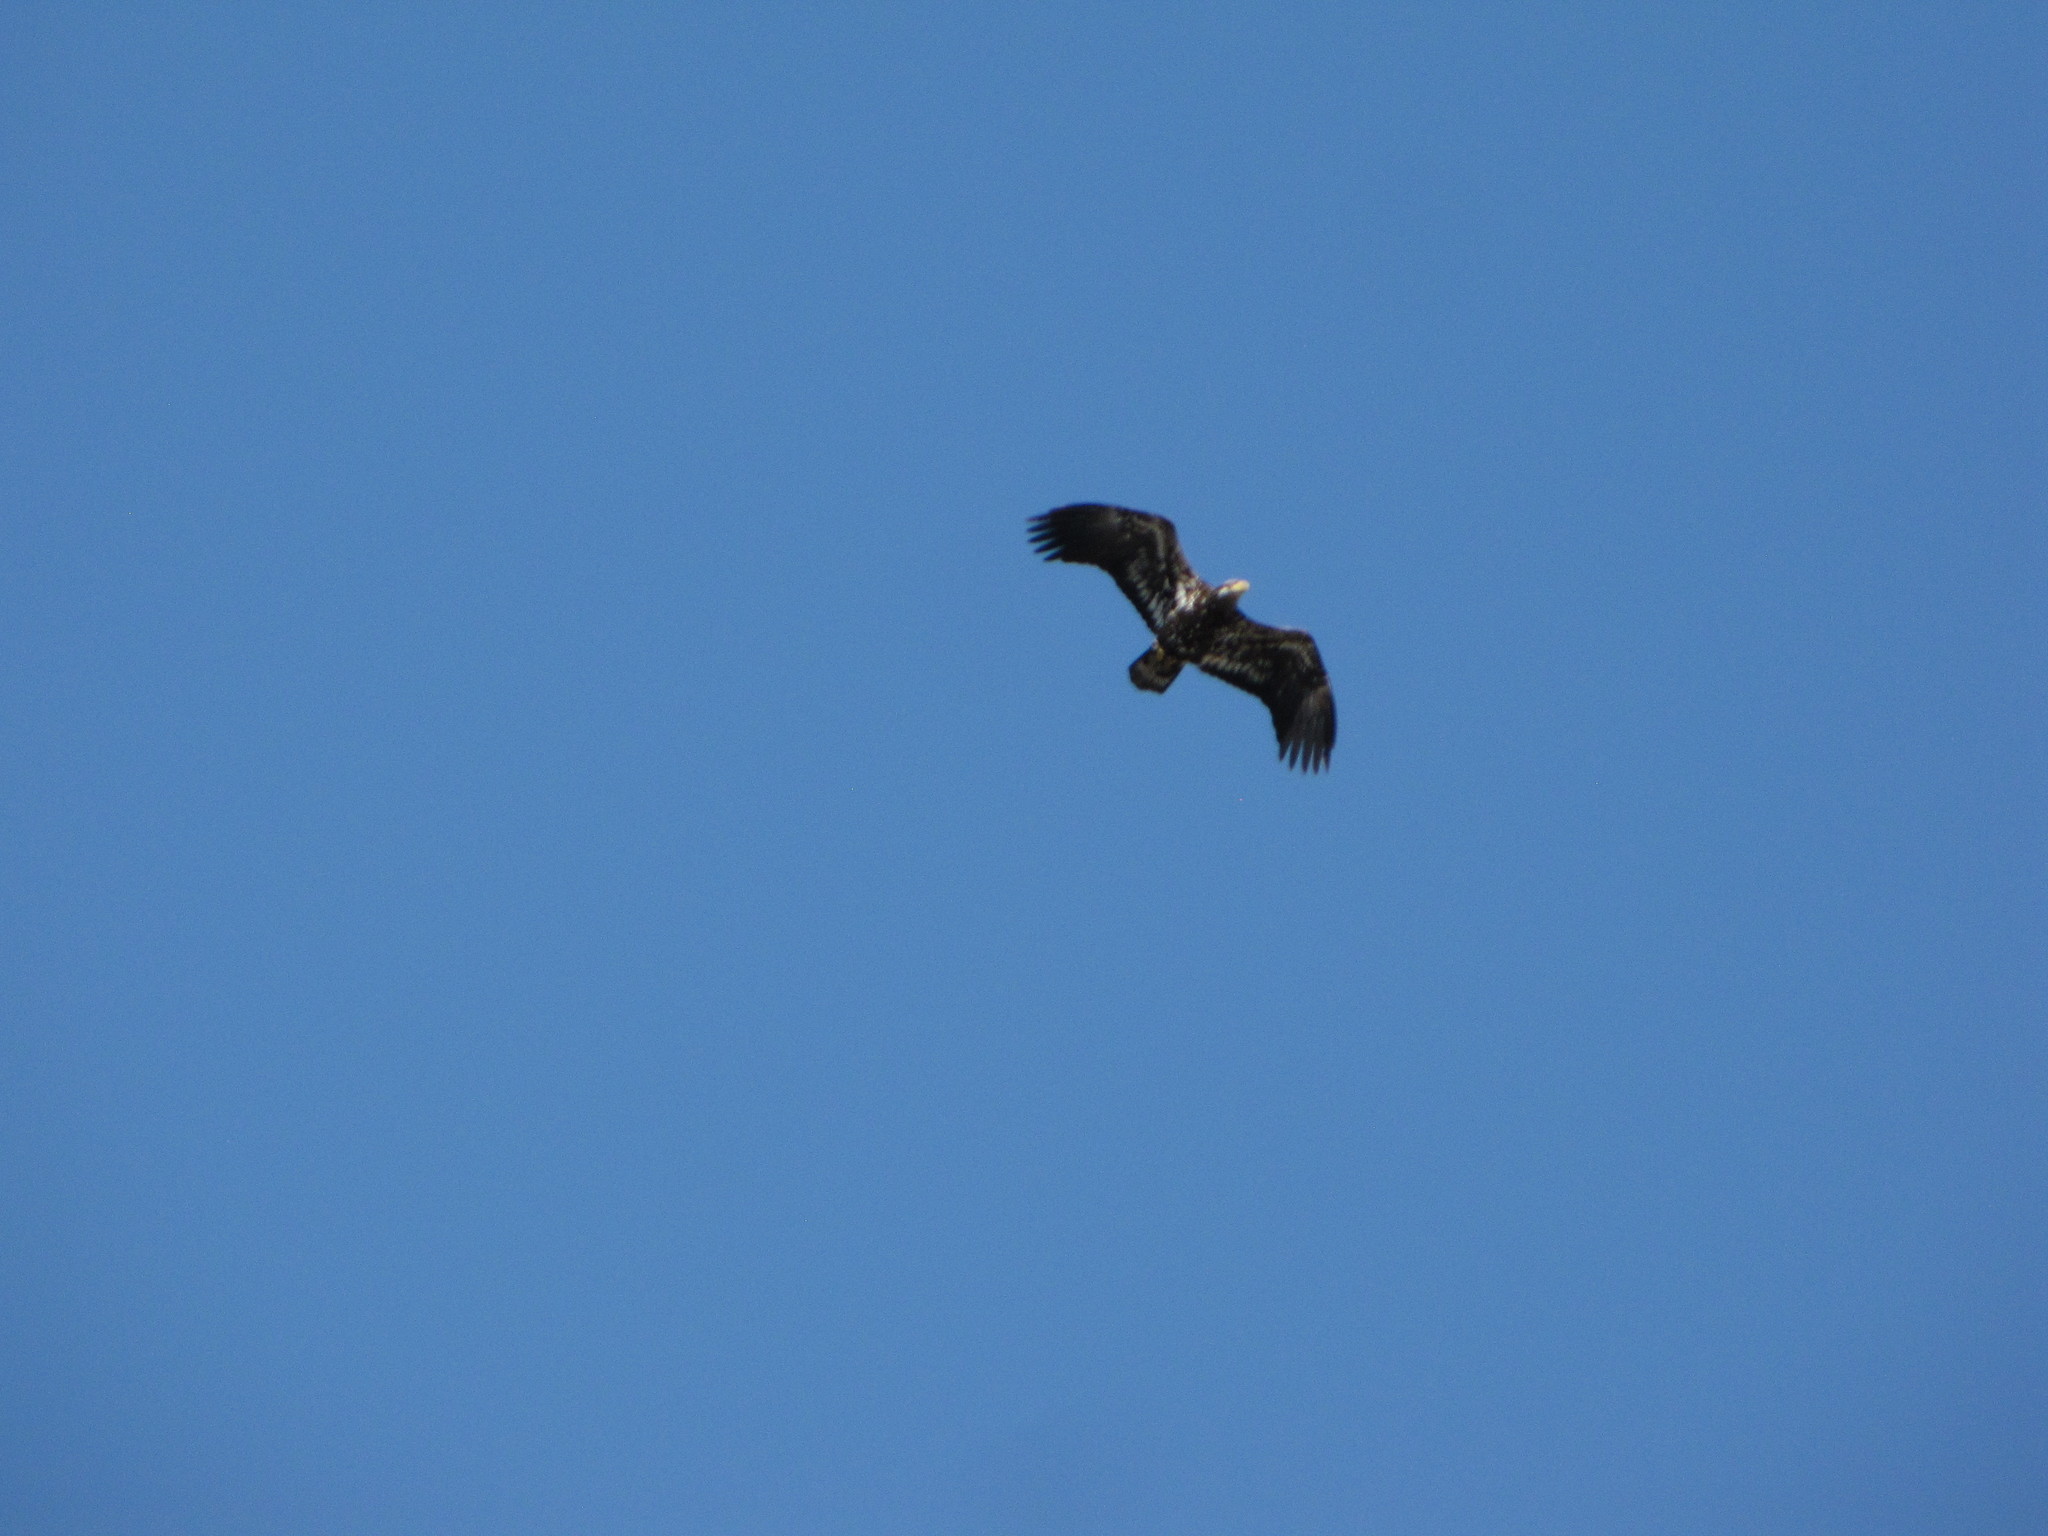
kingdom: Animalia
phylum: Chordata
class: Aves
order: Accipitriformes
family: Accipitridae
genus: Haliaeetus
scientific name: Haliaeetus leucocephalus
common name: Bald eagle
